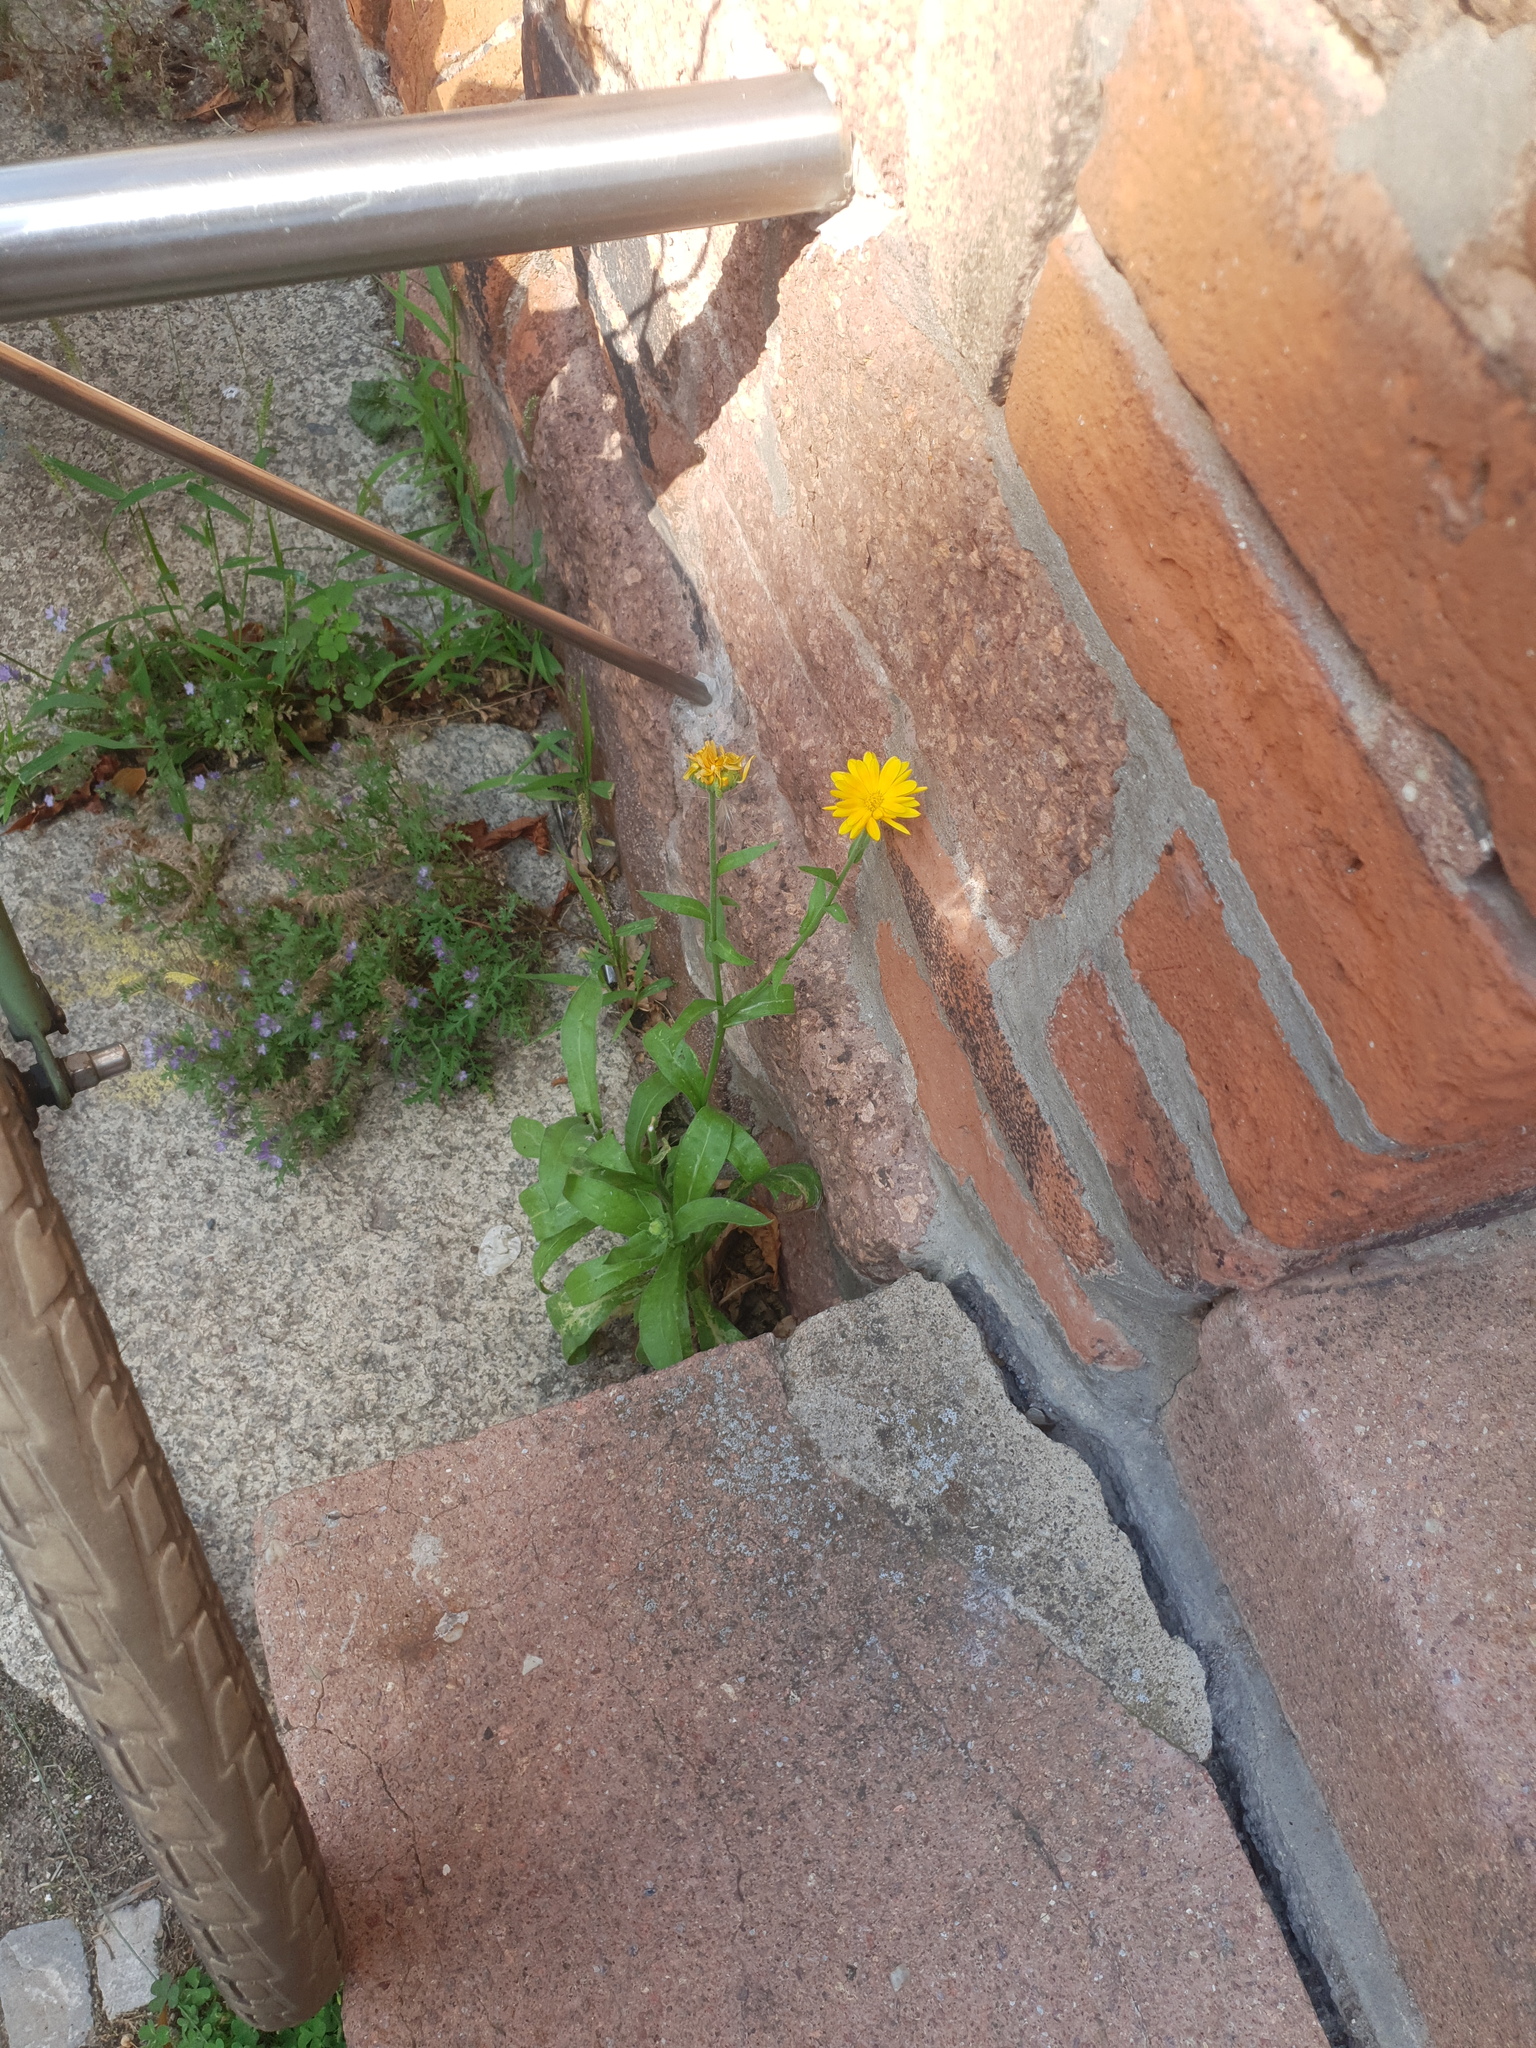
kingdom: Plantae
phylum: Tracheophyta
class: Magnoliopsida
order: Asterales
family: Asteraceae
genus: Calendula
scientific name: Calendula officinalis
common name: Pot marigold
